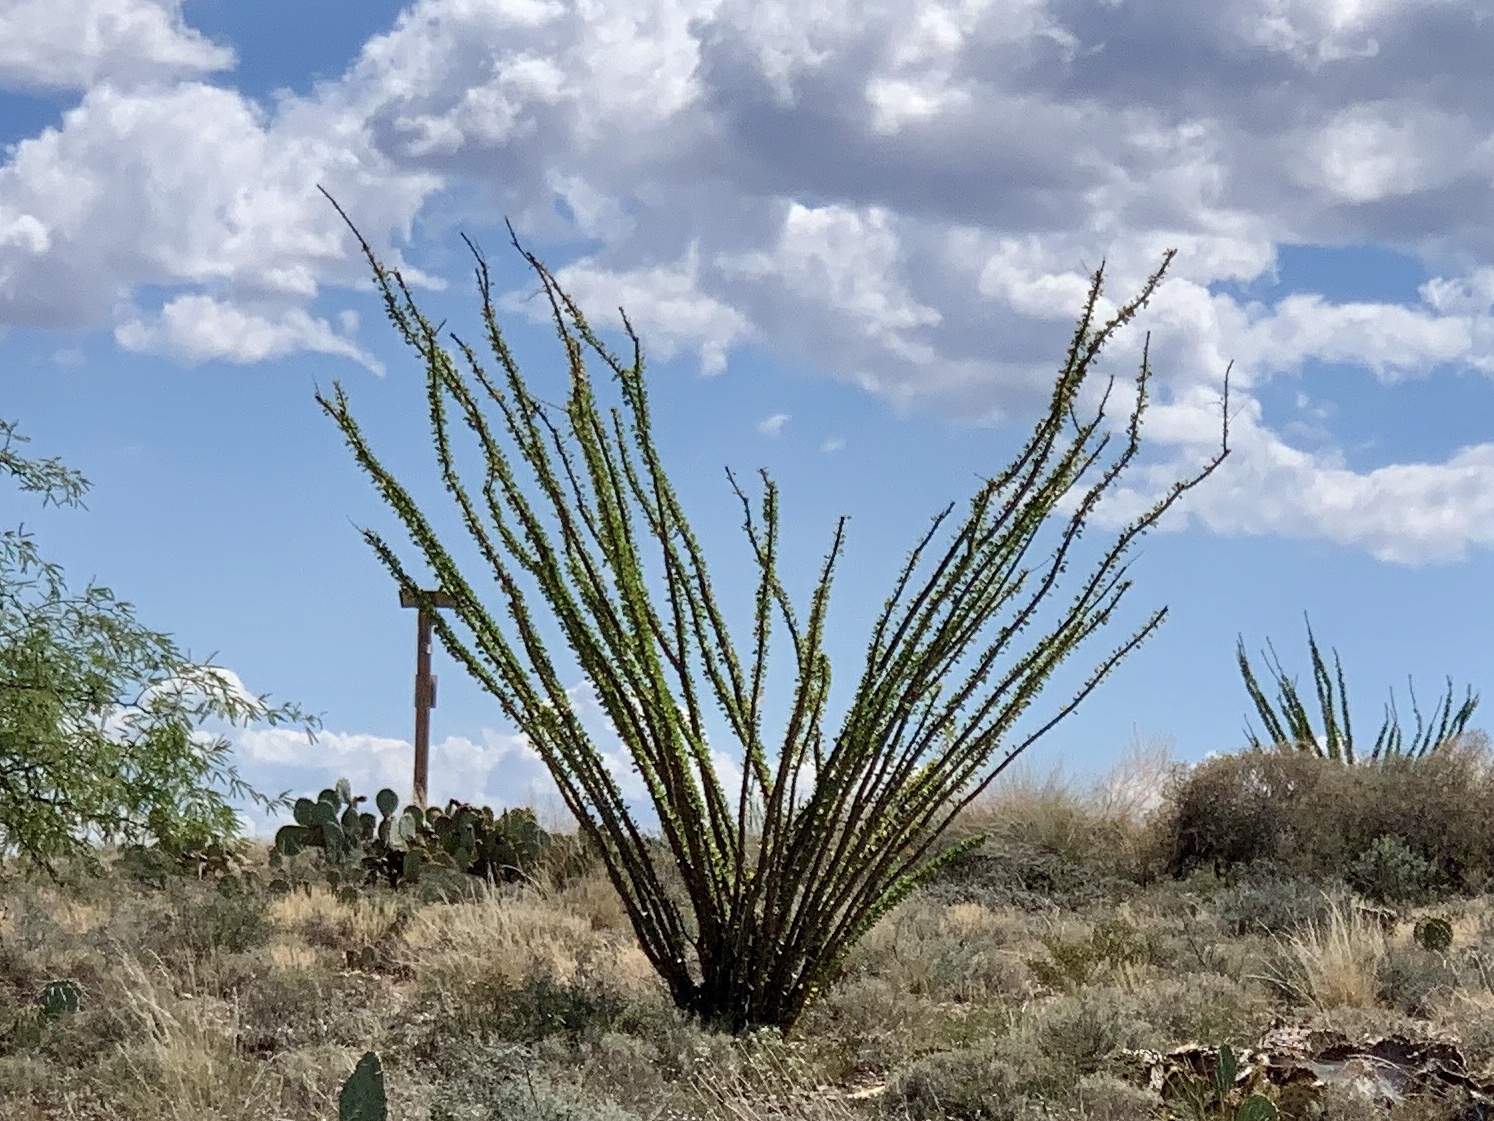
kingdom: Plantae
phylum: Tracheophyta
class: Magnoliopsida
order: Ericales
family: Fouquieriaceae
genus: Fouquieria
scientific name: Fouquieria splendens
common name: Vine-cactus
